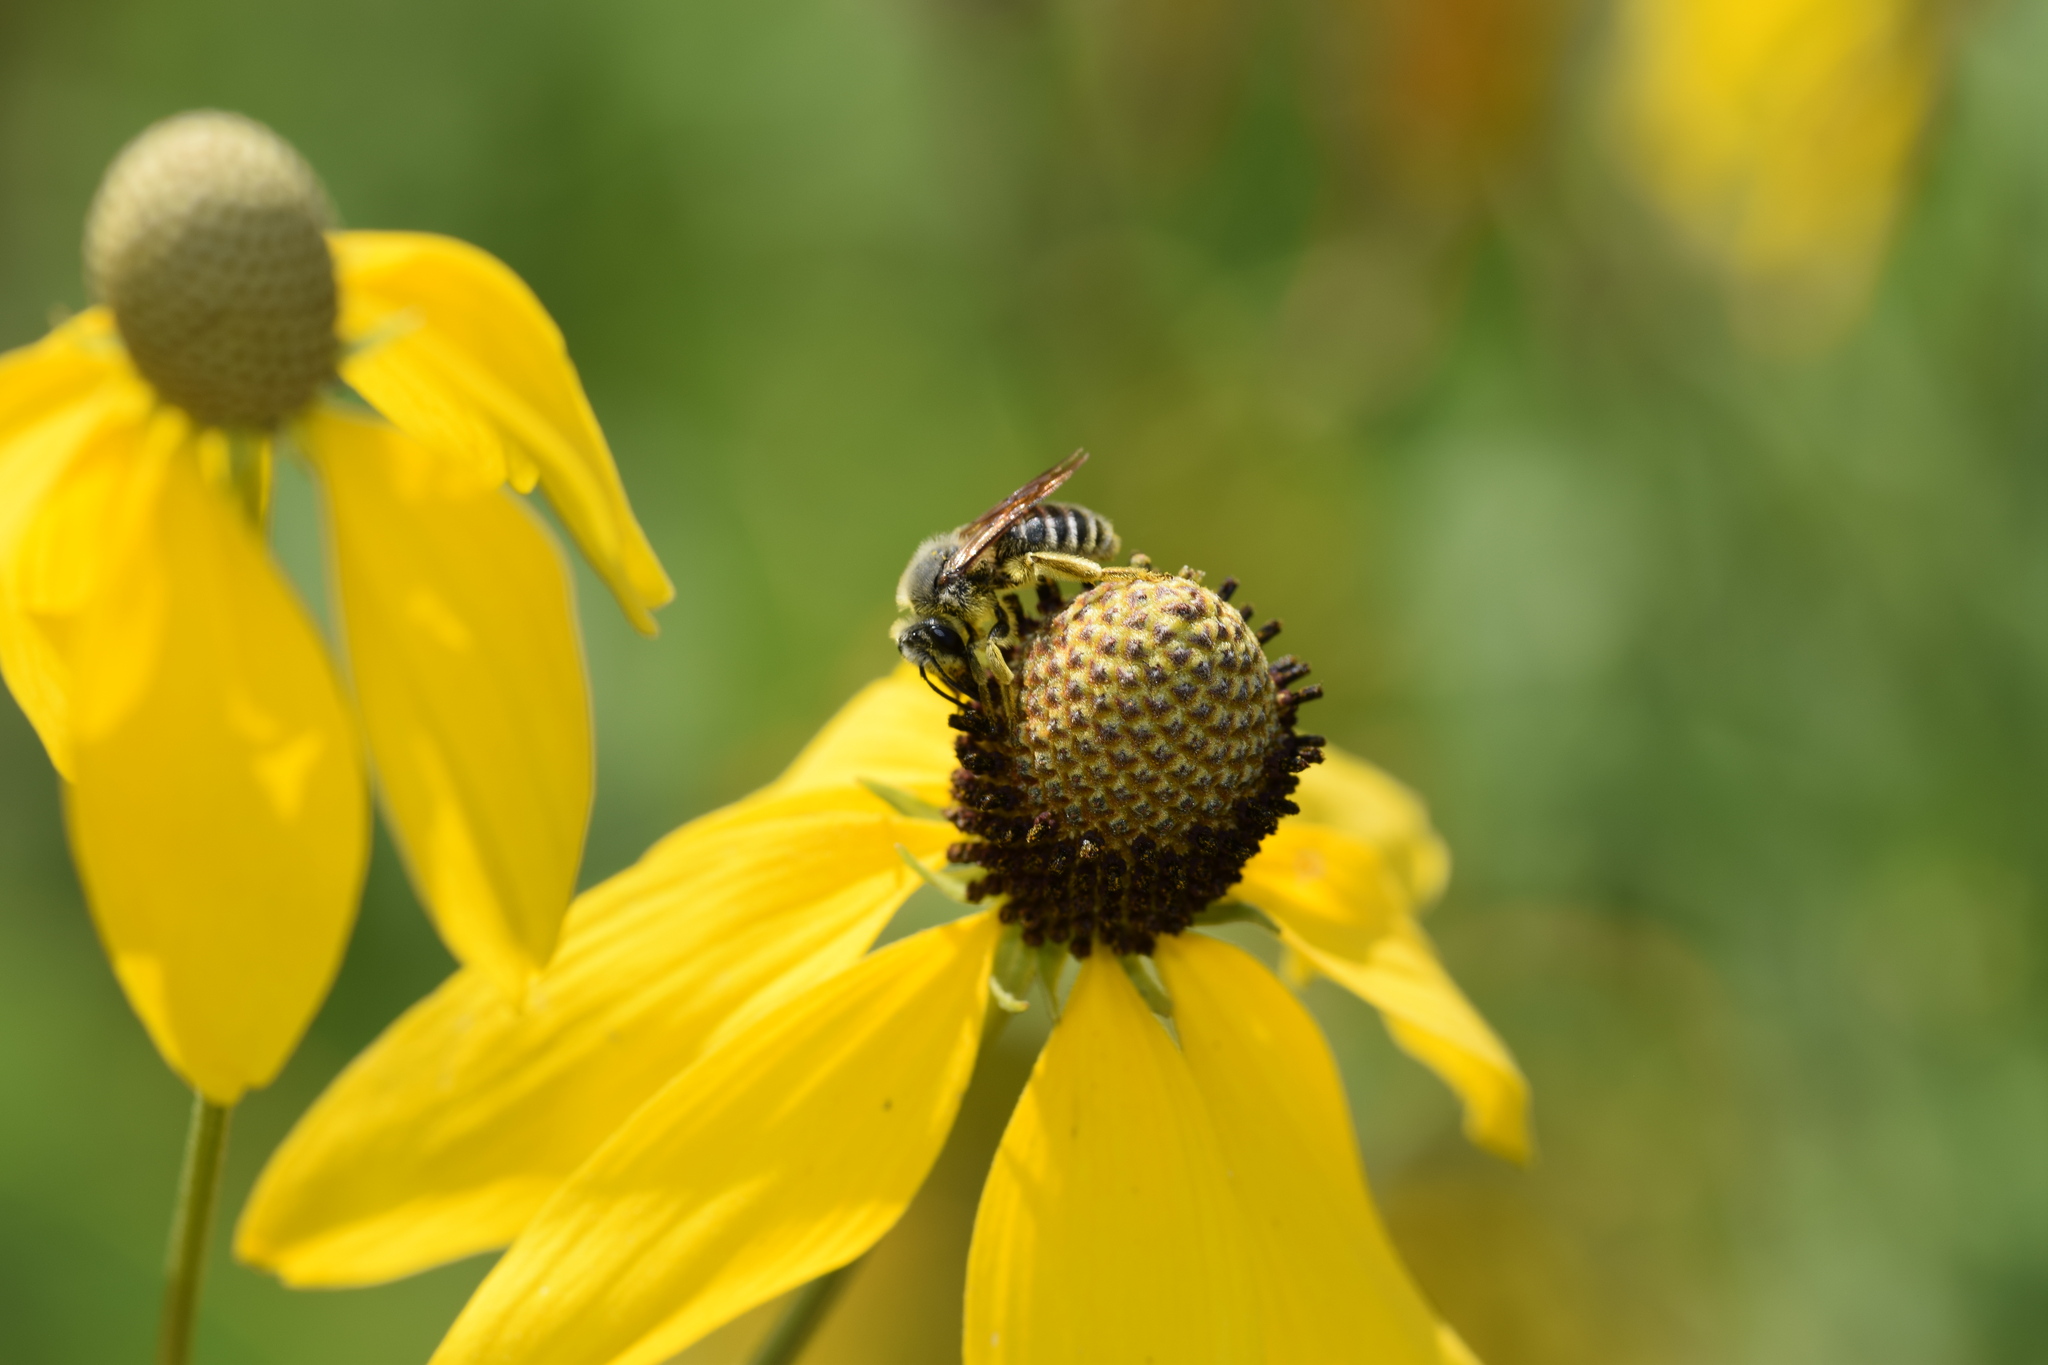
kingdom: Animalia
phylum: Arthropoda
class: Insecta
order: Hymenoptera
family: Andrenidae
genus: Andrena
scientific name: Andrena rudbeckiae
